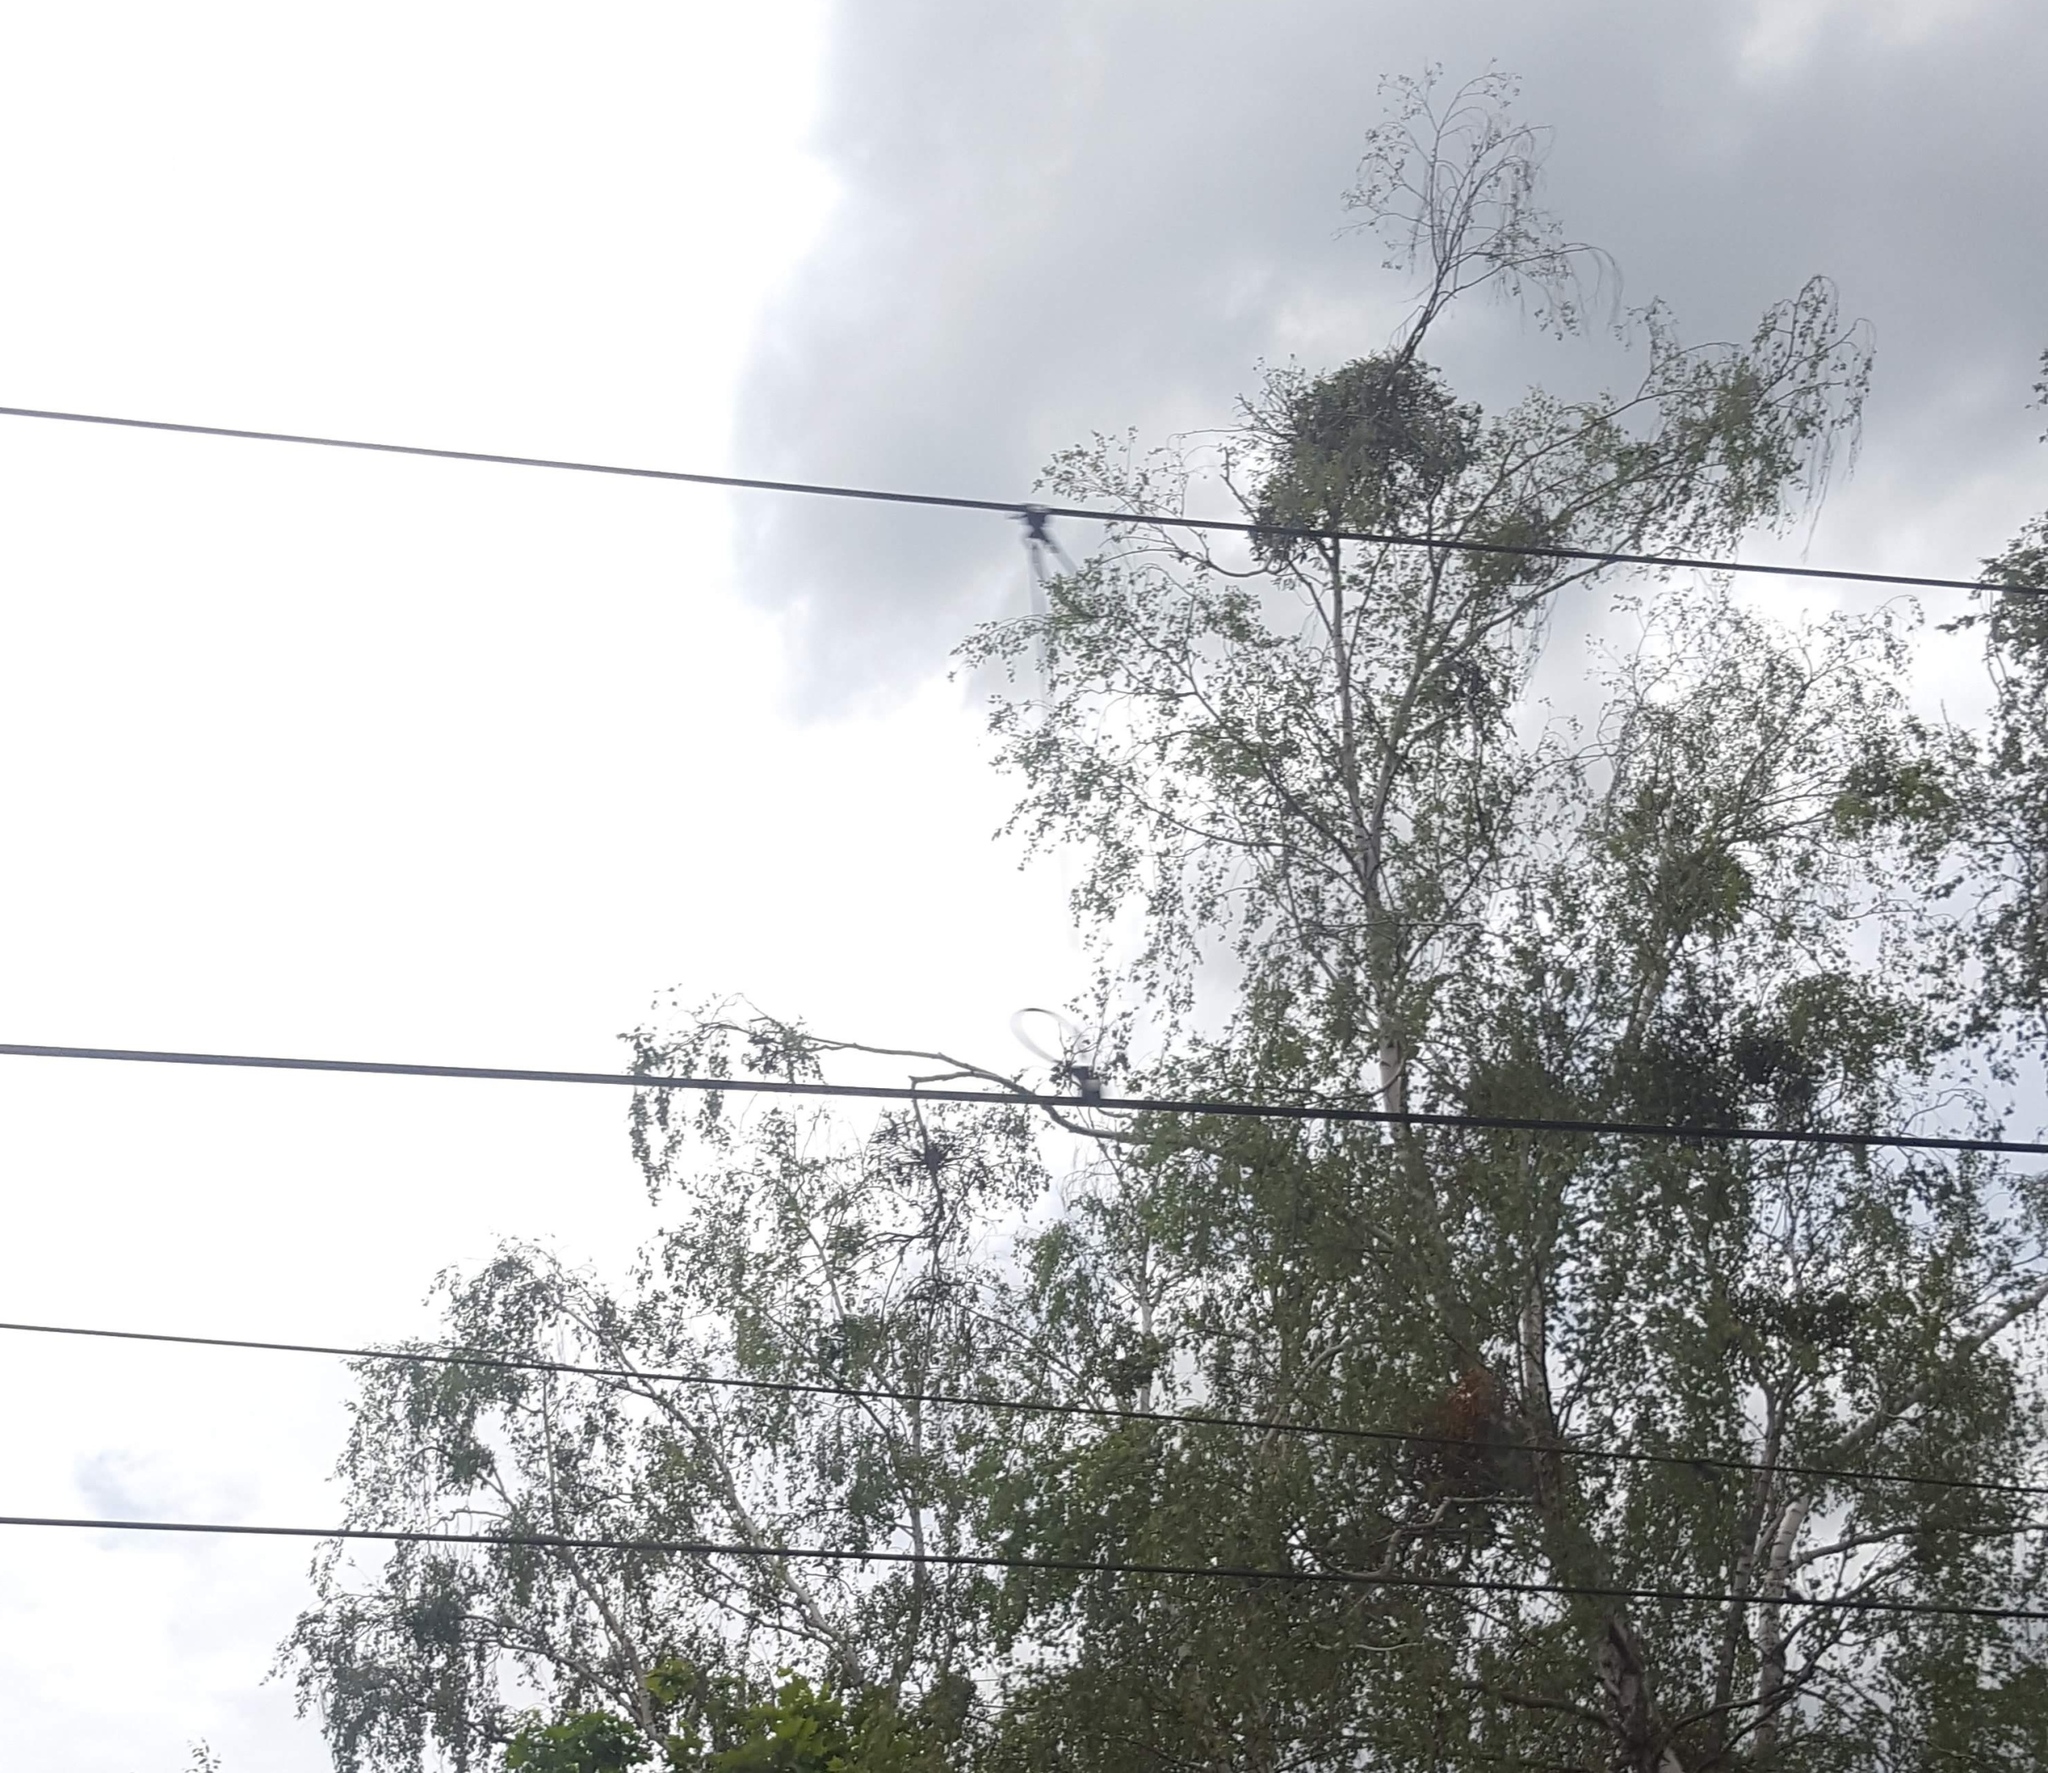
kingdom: Plantae
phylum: Tracheophyta
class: Magnoliopsida
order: Santalales
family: Viscaceae
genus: Viscum
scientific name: Viscum album
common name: Mistletoe
